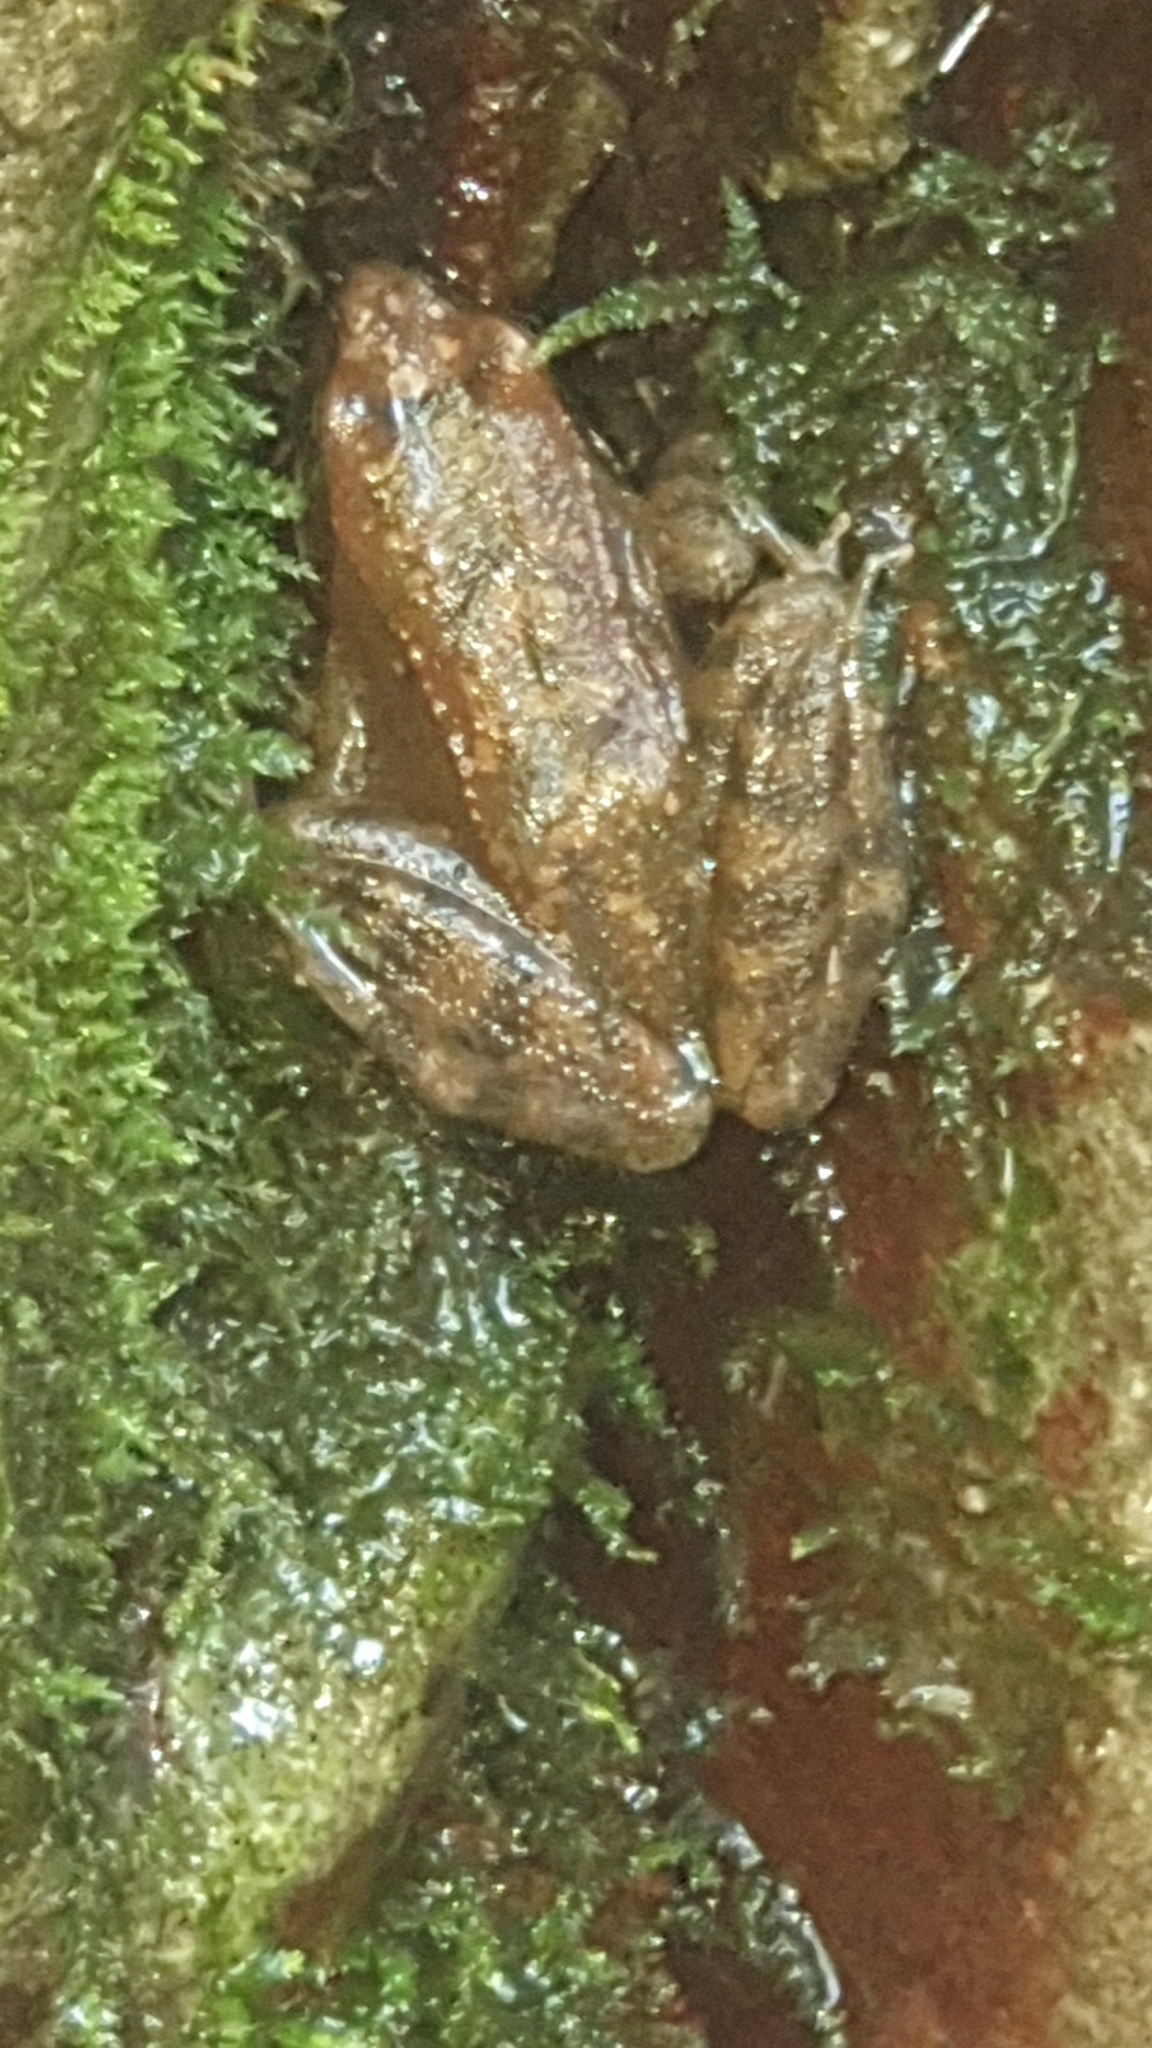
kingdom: Animalia
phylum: Chordata
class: Amphibia
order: Anura
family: Ranidae
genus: Rana
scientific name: Rana italica
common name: Italian stream frog
